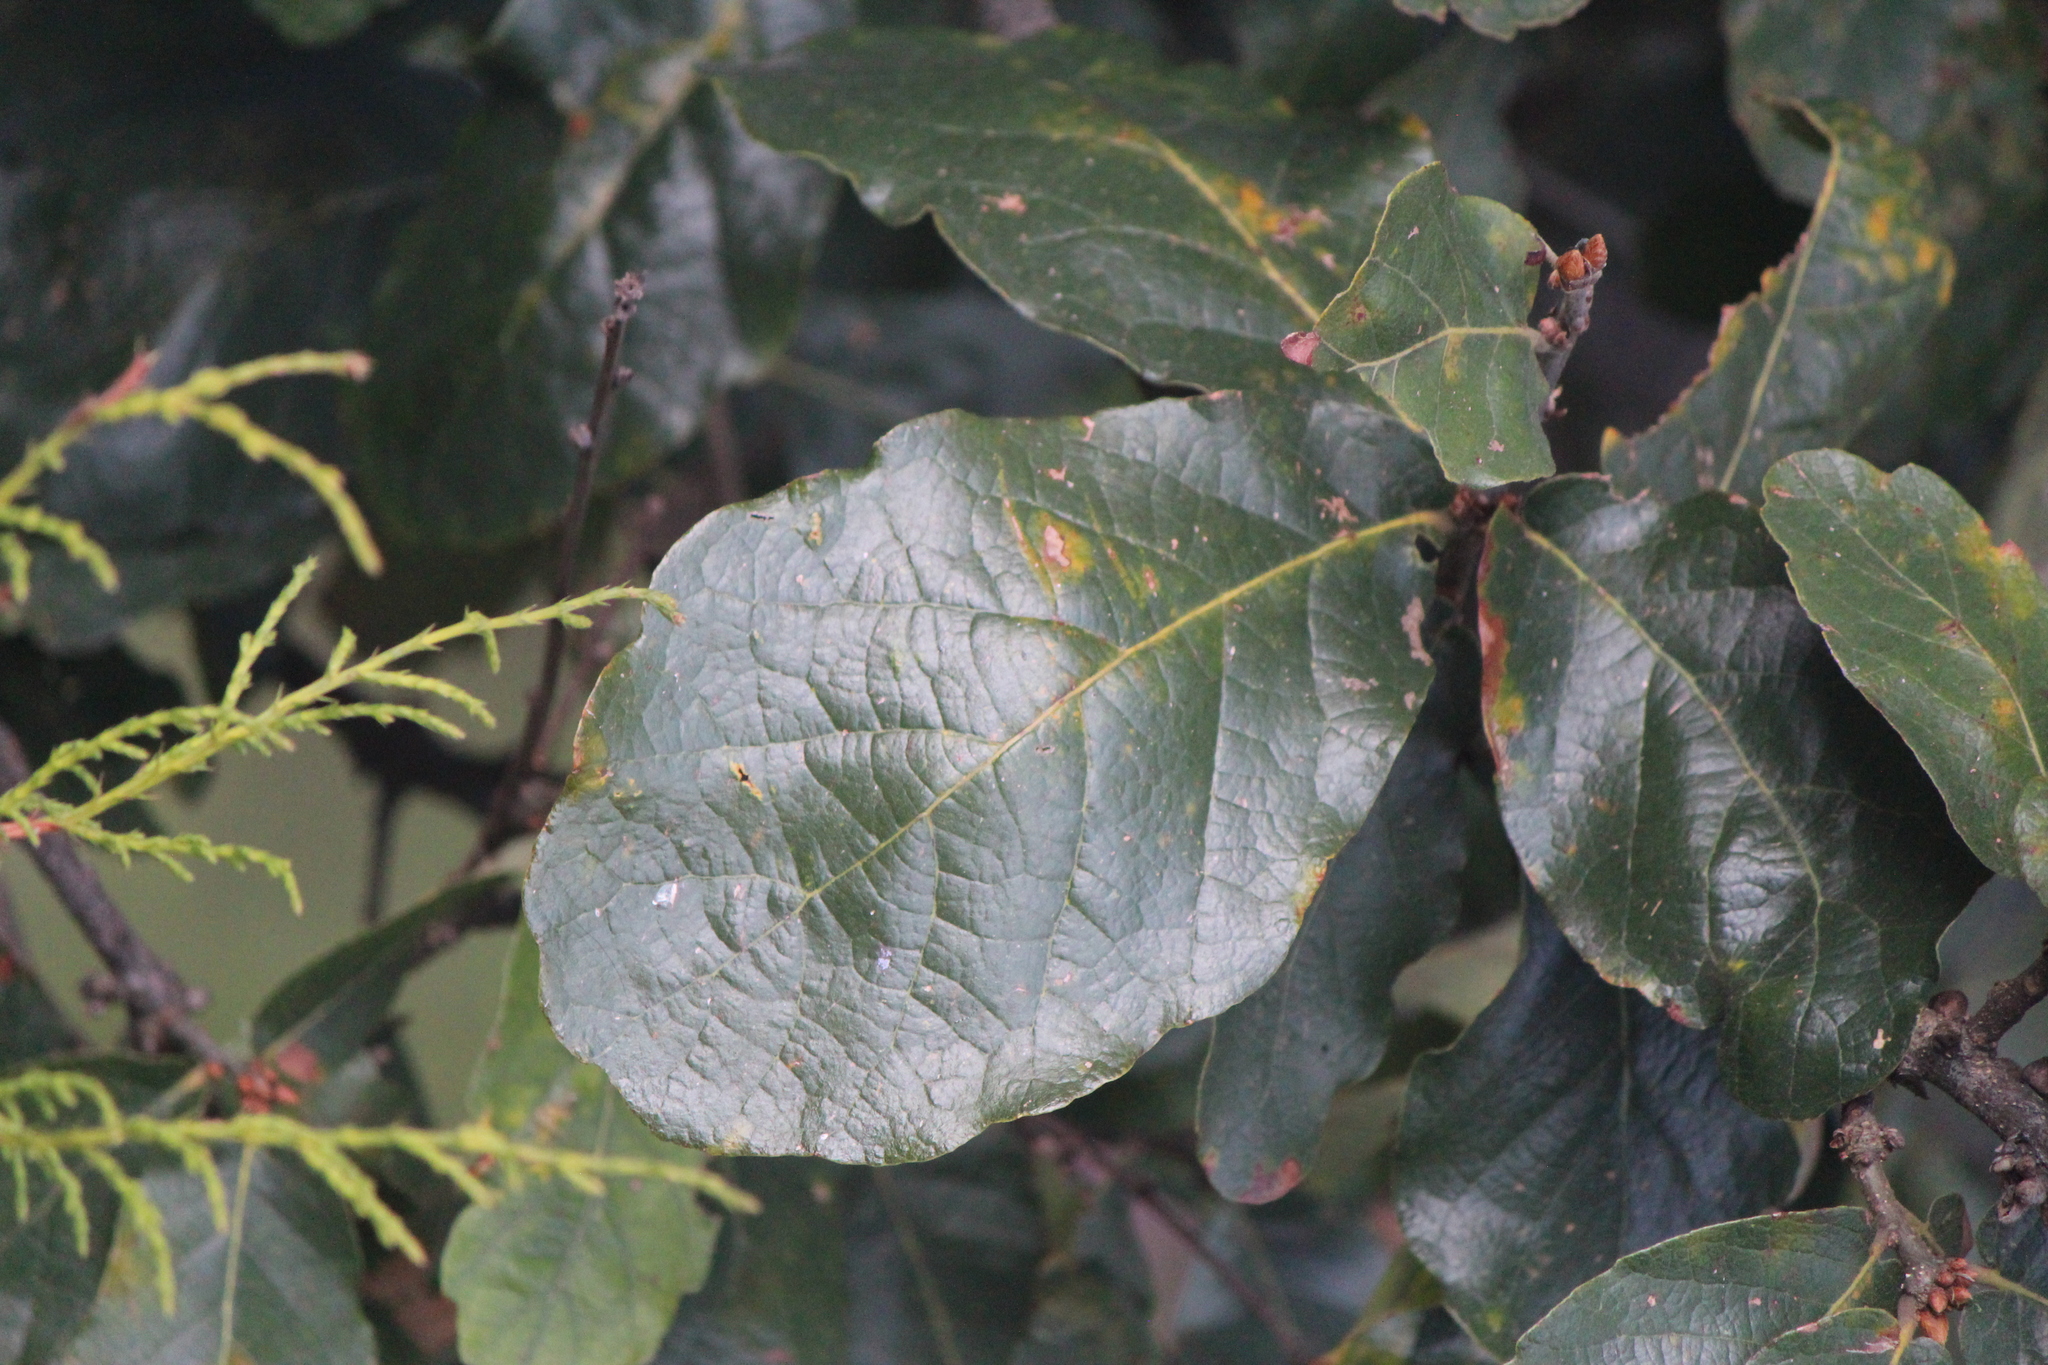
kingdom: Plantae
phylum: Tracheophyta
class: Magnoliopsida
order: Fagales
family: Fagaceae
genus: Quercus
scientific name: Quercus rugosa
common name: Netleaf oak
